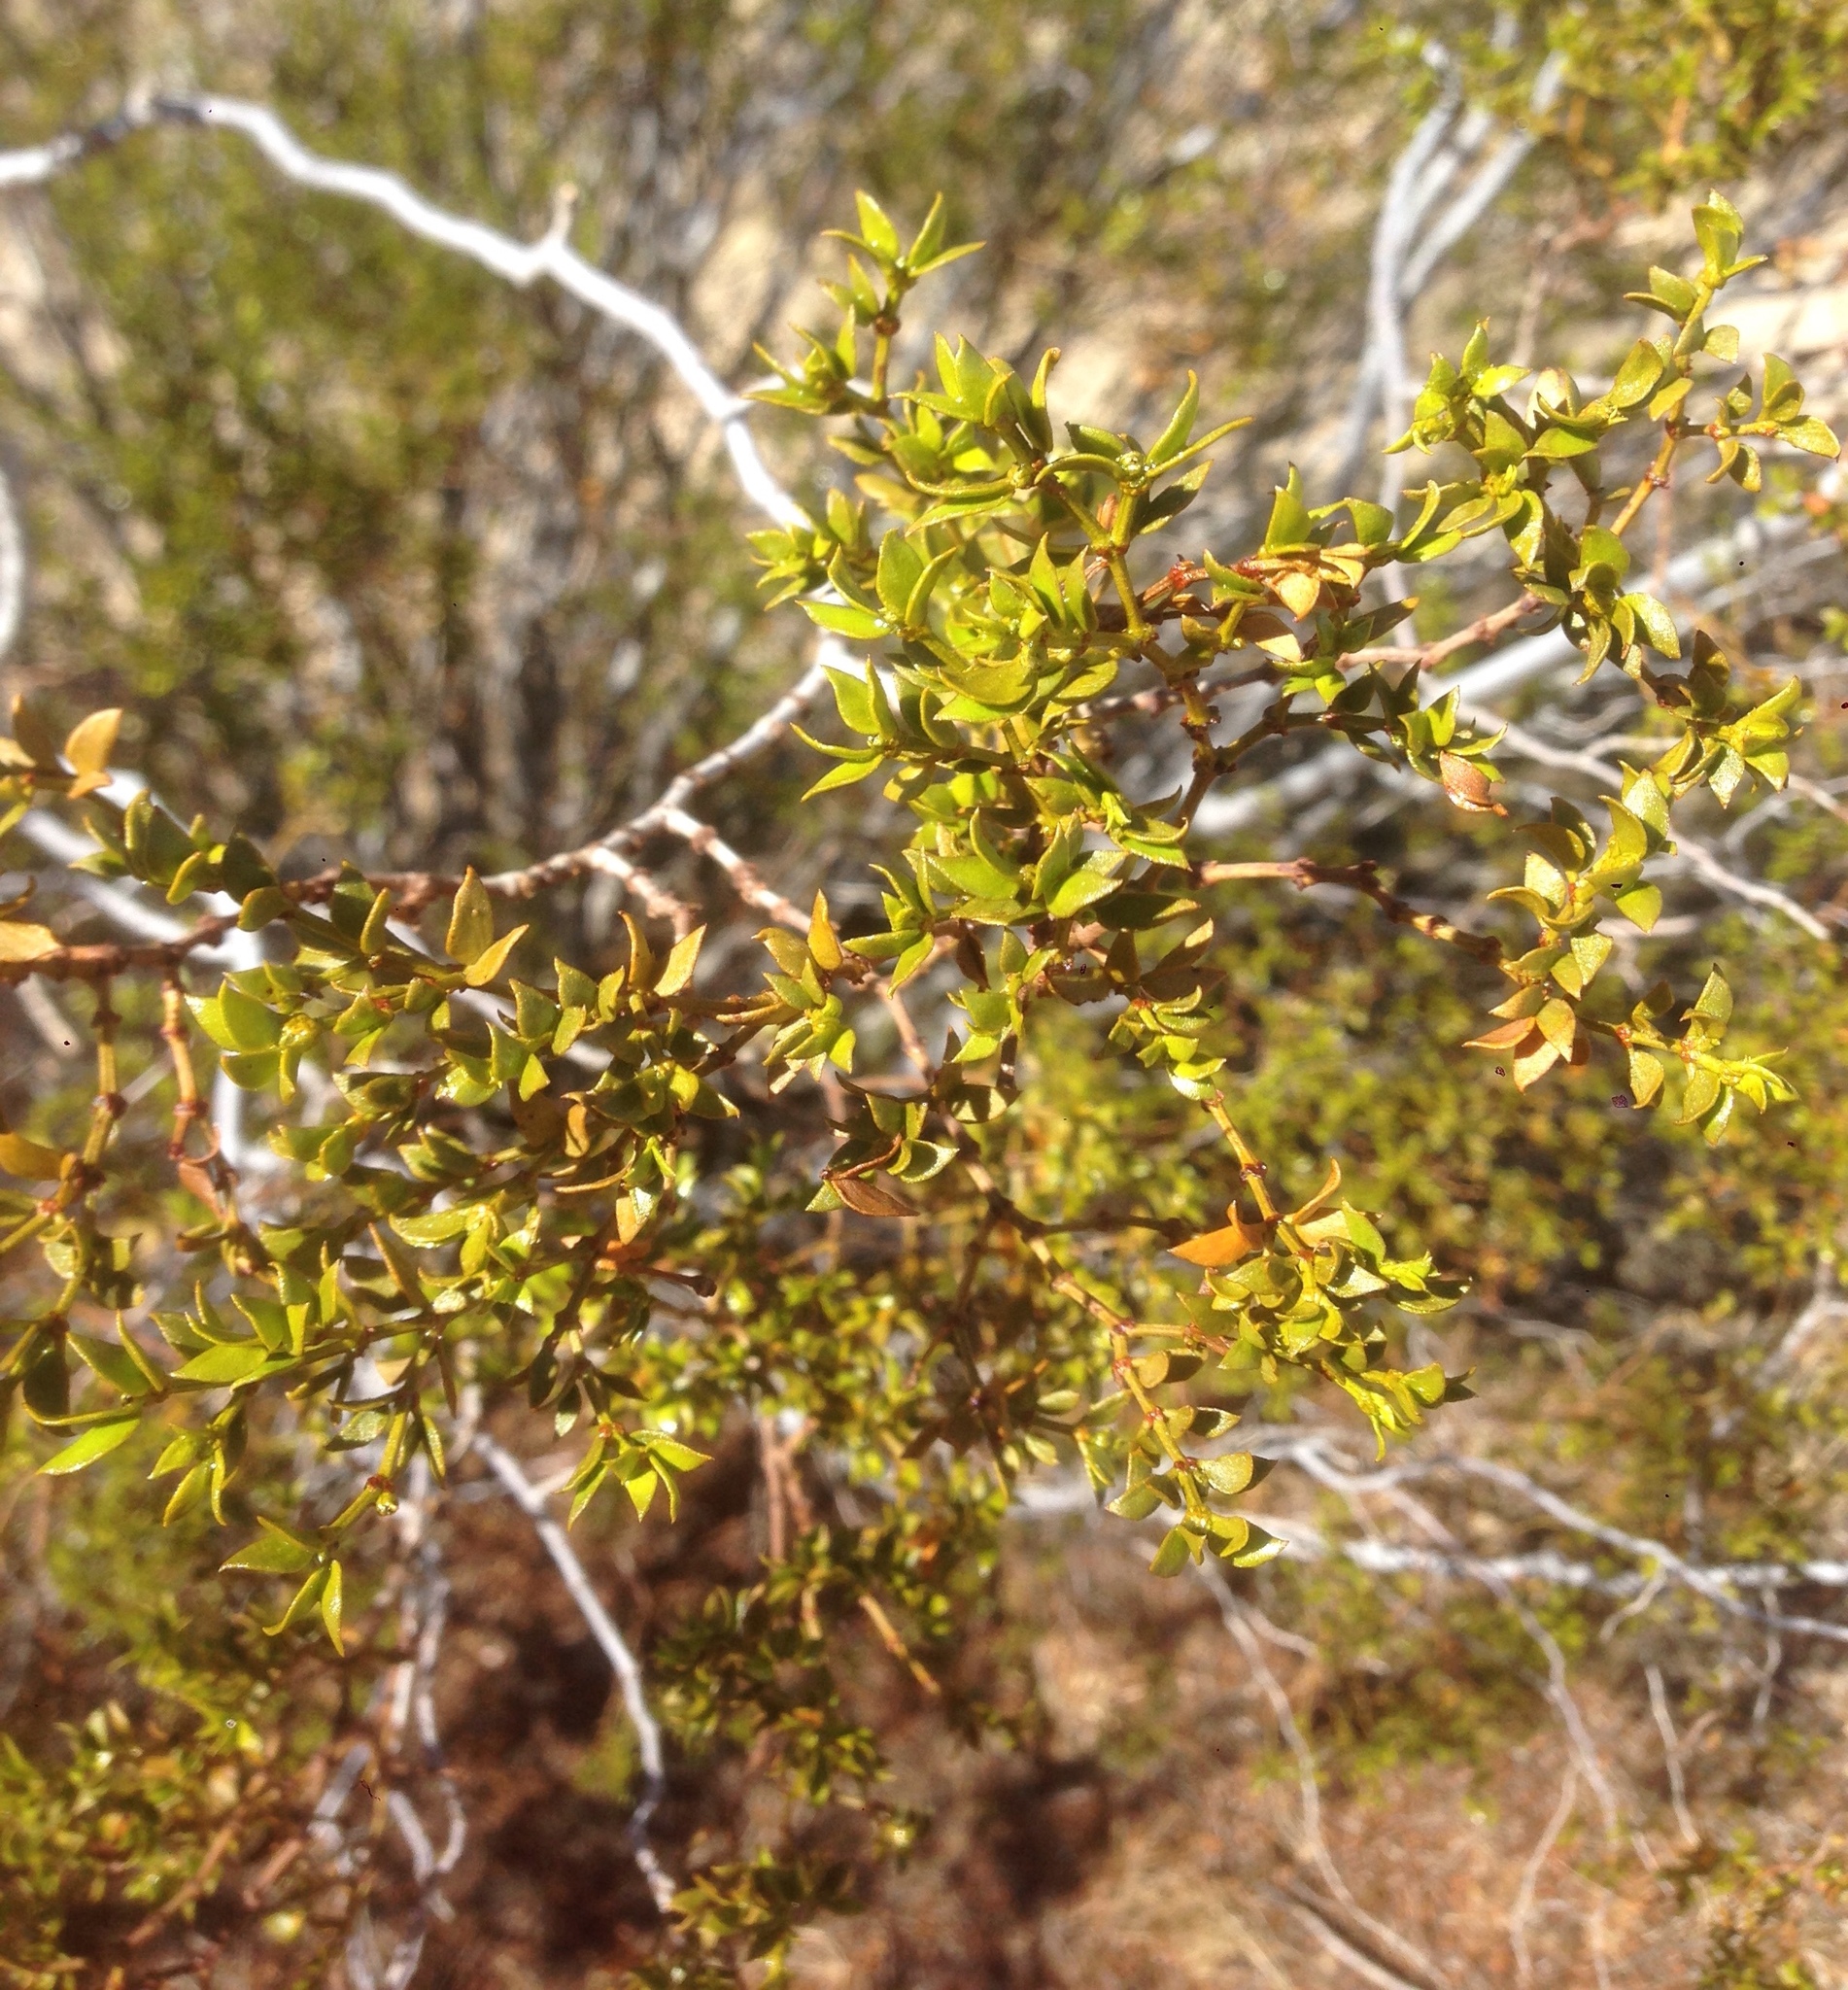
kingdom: Plantae
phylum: Tracheophyta
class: Magnoliopsida
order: Zygophyllales
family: Zygophyllaceae
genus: Larrea
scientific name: Larrea tridentata
